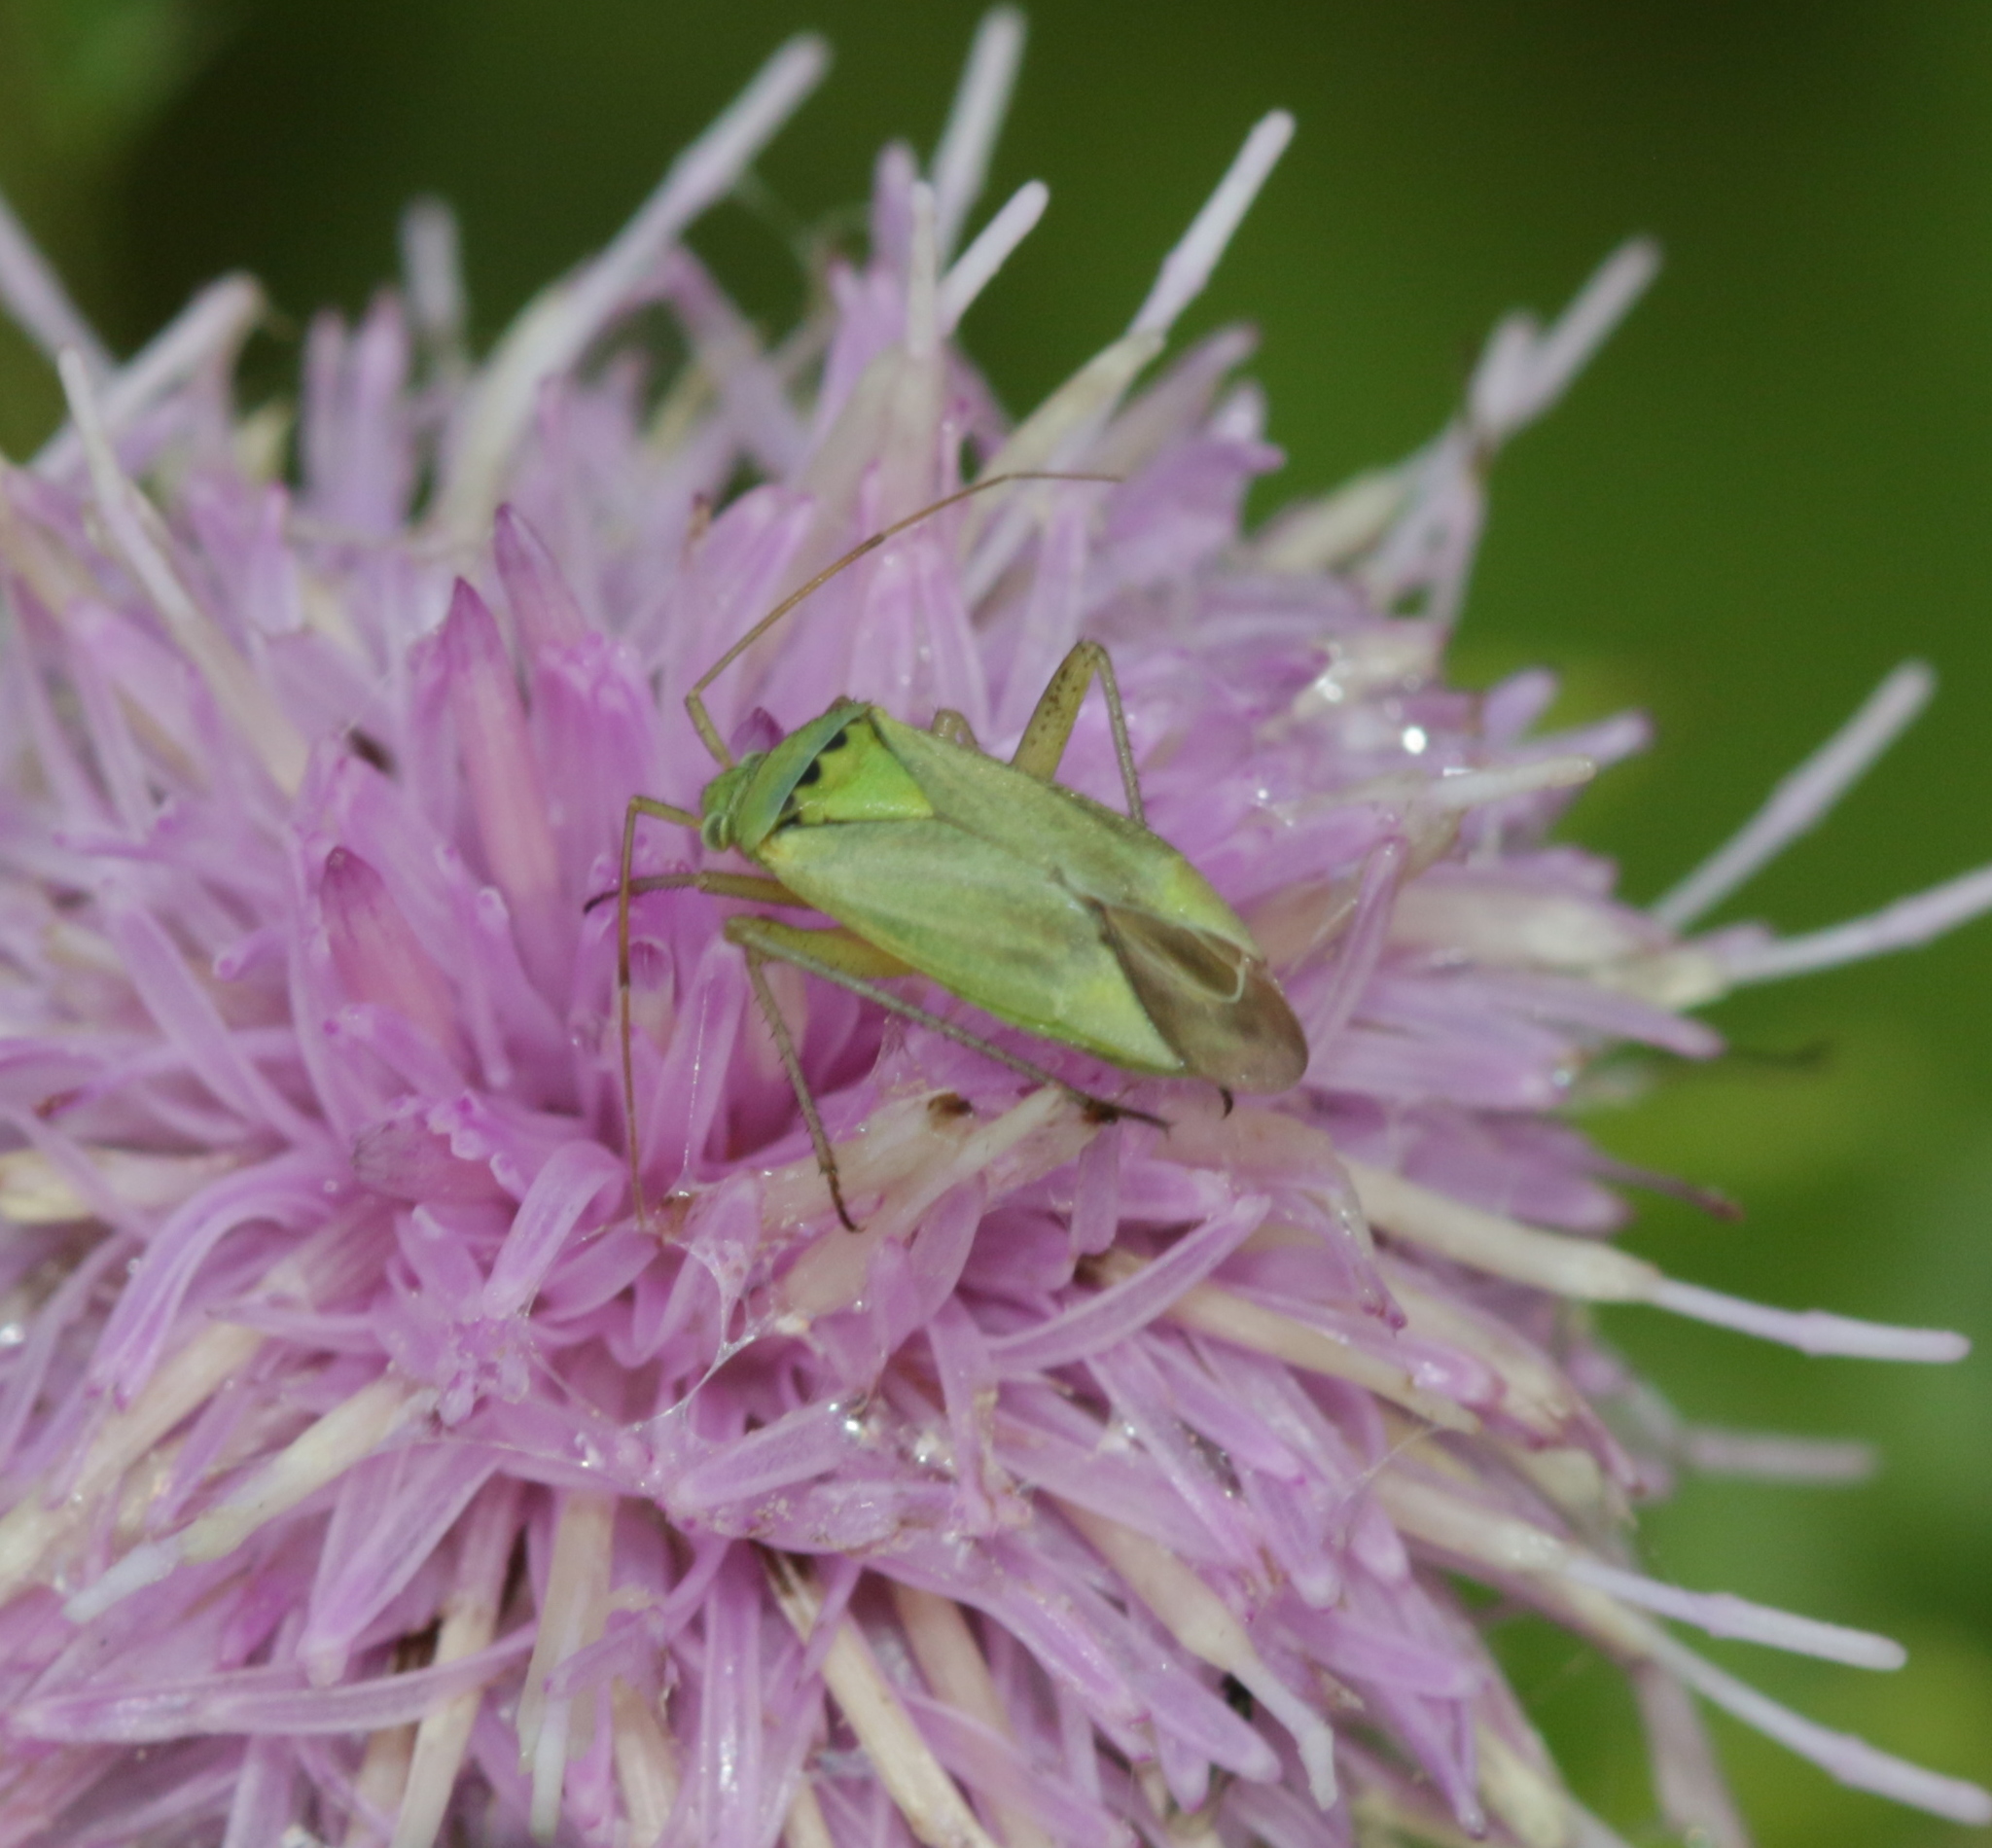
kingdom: Animalia
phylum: Arthropoda
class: Insecta
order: Hemiptera
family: Miridae
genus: Closterotomus
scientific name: Closterotomus norvegicus
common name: Plant bug
